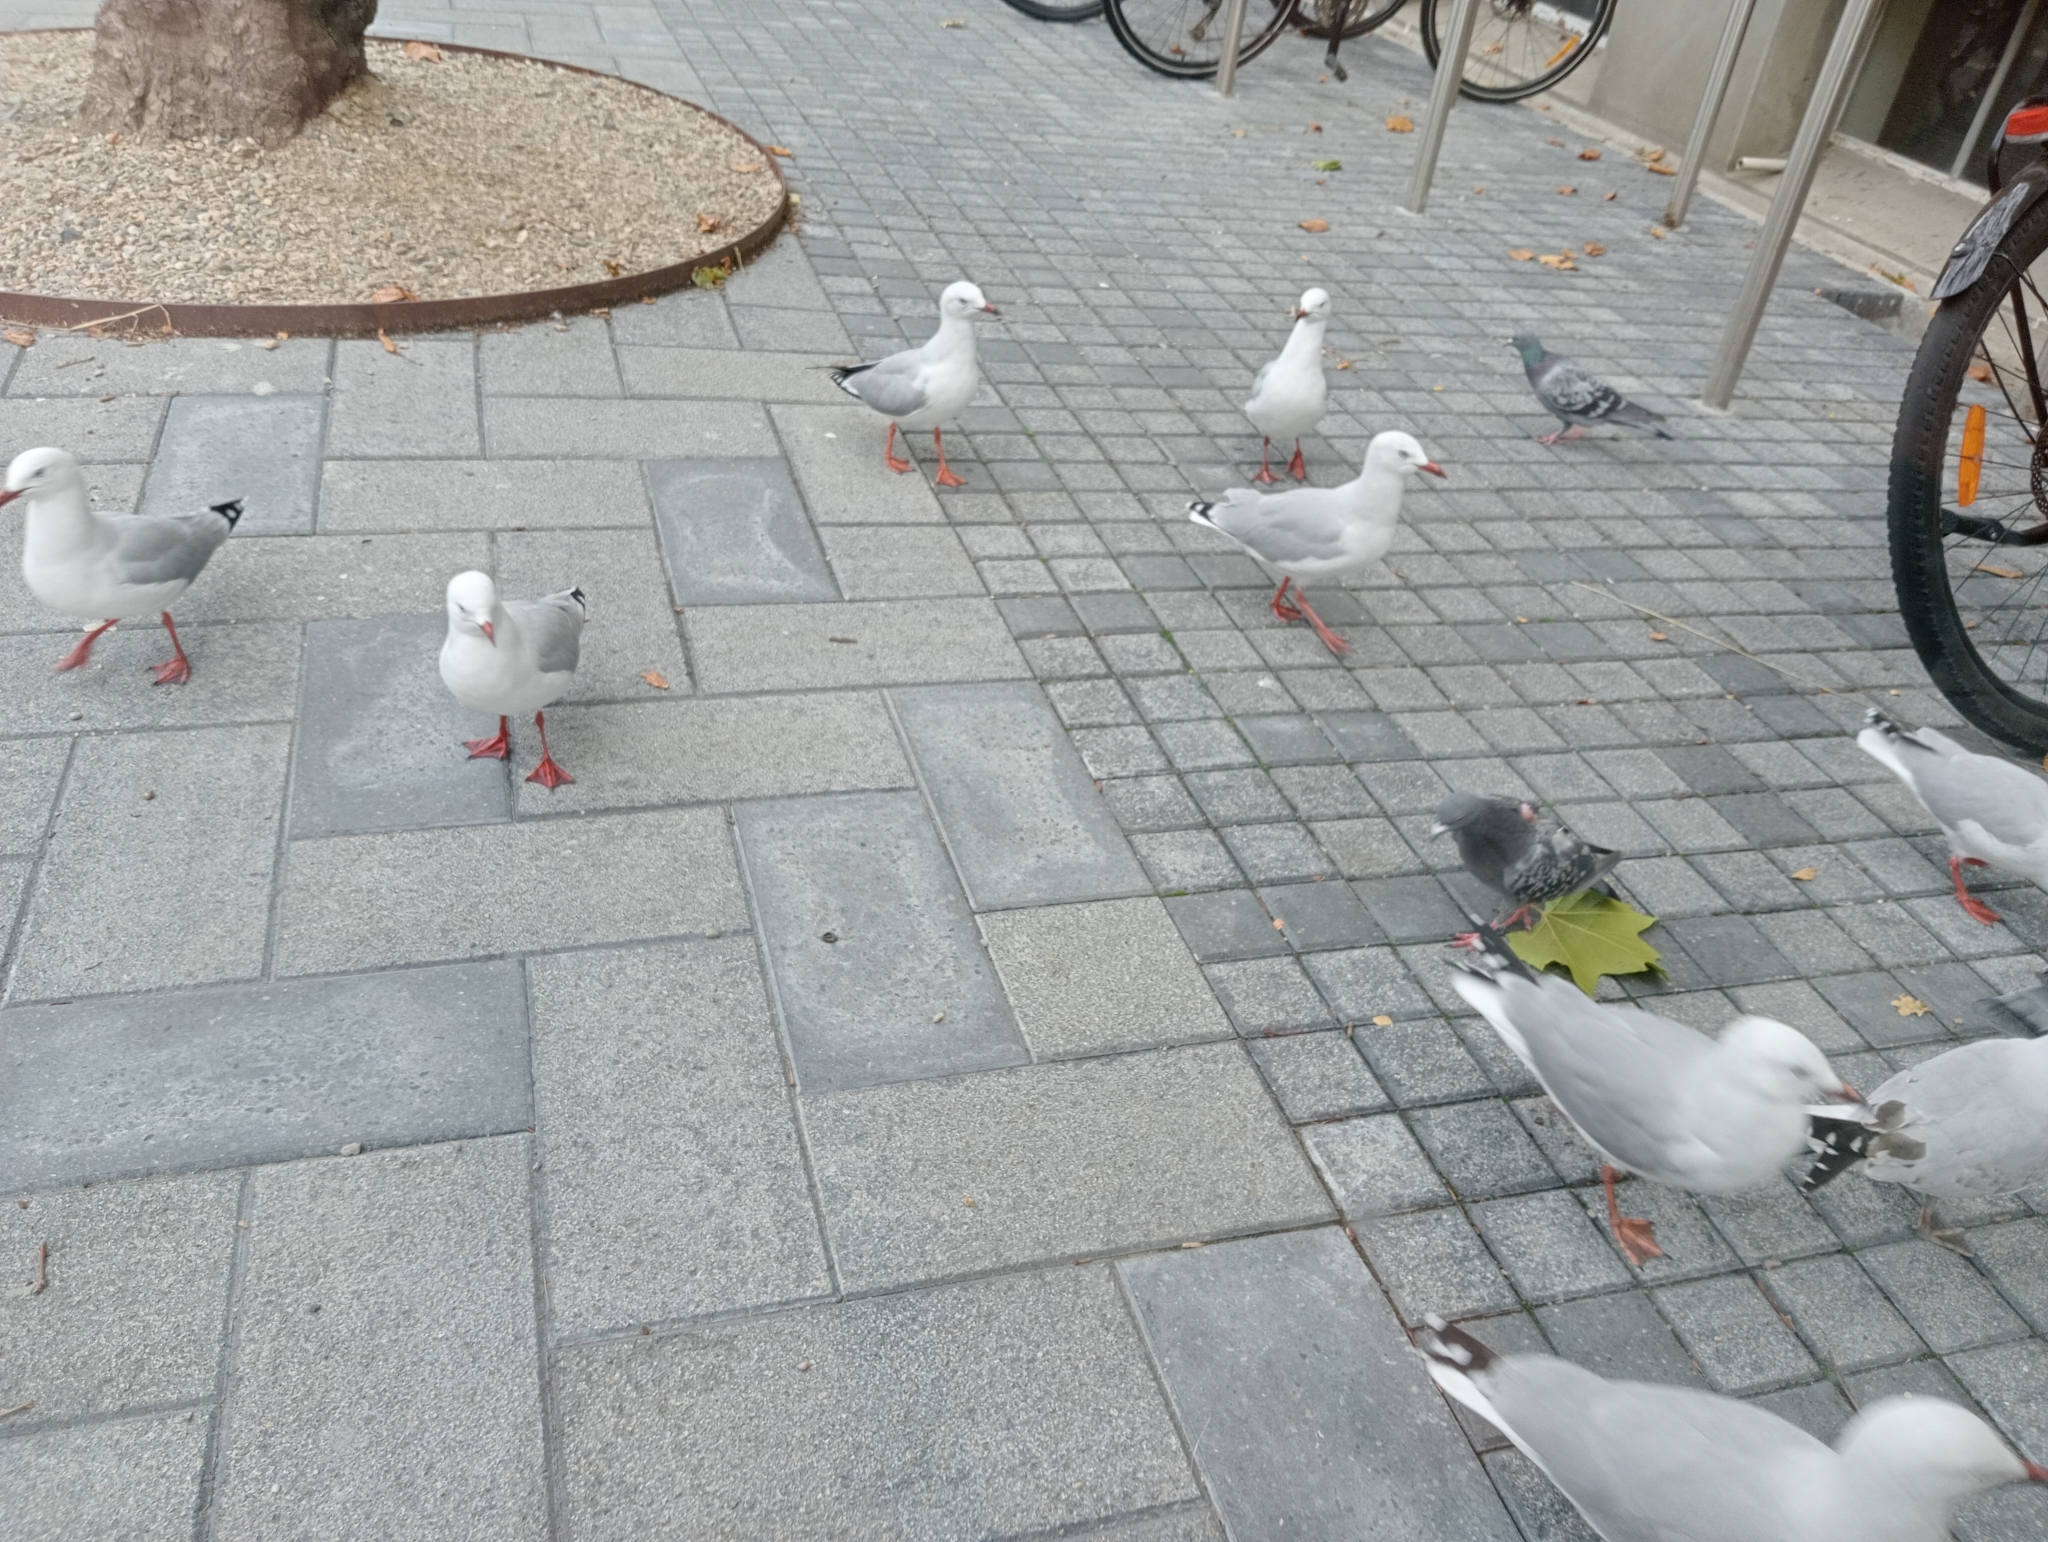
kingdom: Animalia
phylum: Chordata
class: Aves
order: Charadriiformes
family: Laridae
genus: Chroicocephalus
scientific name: Chroicocephalus novaehollandiae
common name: Silver gull
